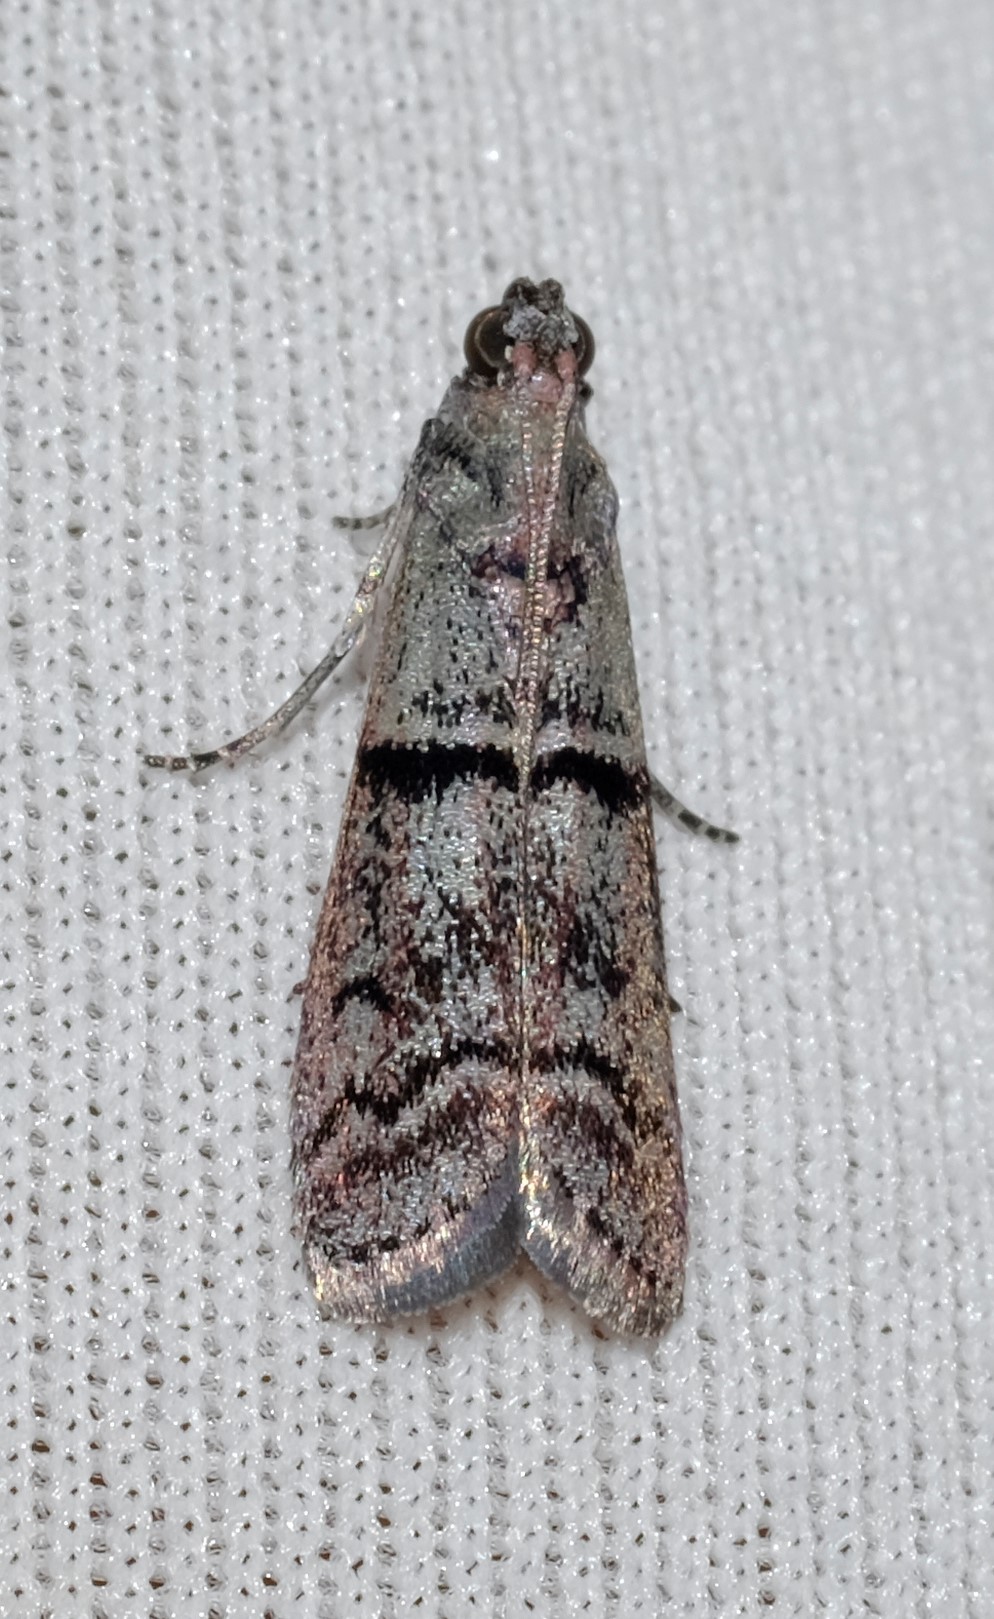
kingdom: Animalia
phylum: Arthropoda
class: Insecta
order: Lepidoptera
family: Pyralidae
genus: Cryptoblabes
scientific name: Cryptoblabes euraphella
